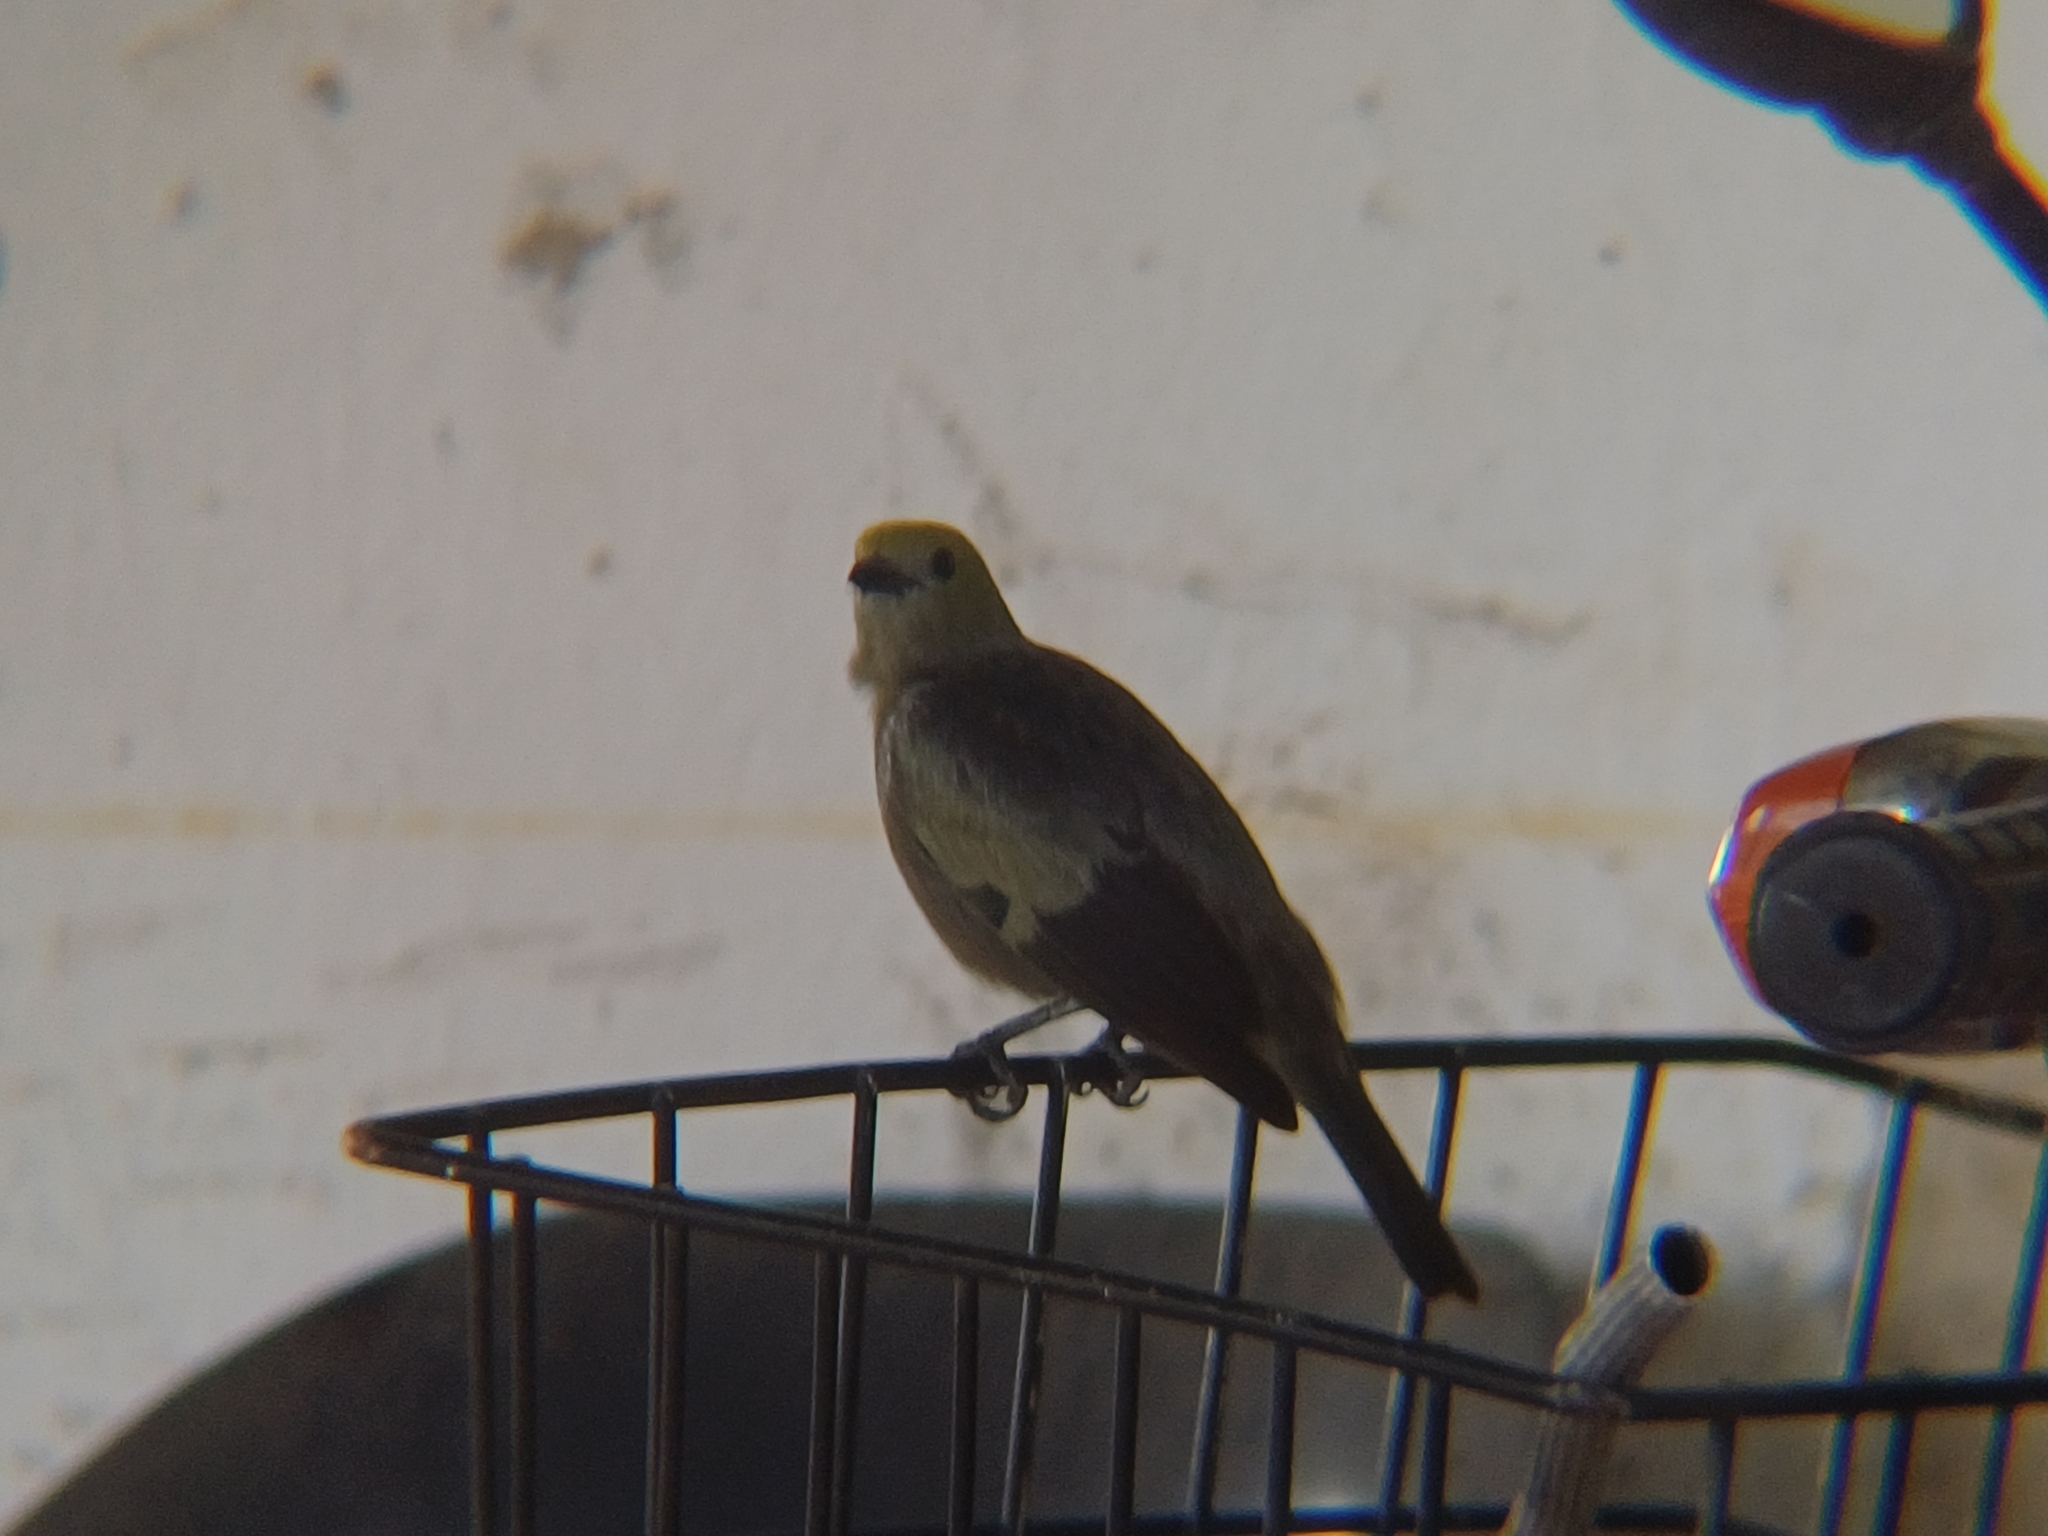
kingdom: Animalia
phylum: Chordata
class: Aves
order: Passeriformes
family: Thraupidae
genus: Thraupis
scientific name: Thraupis palmarum
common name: Palm tanager
